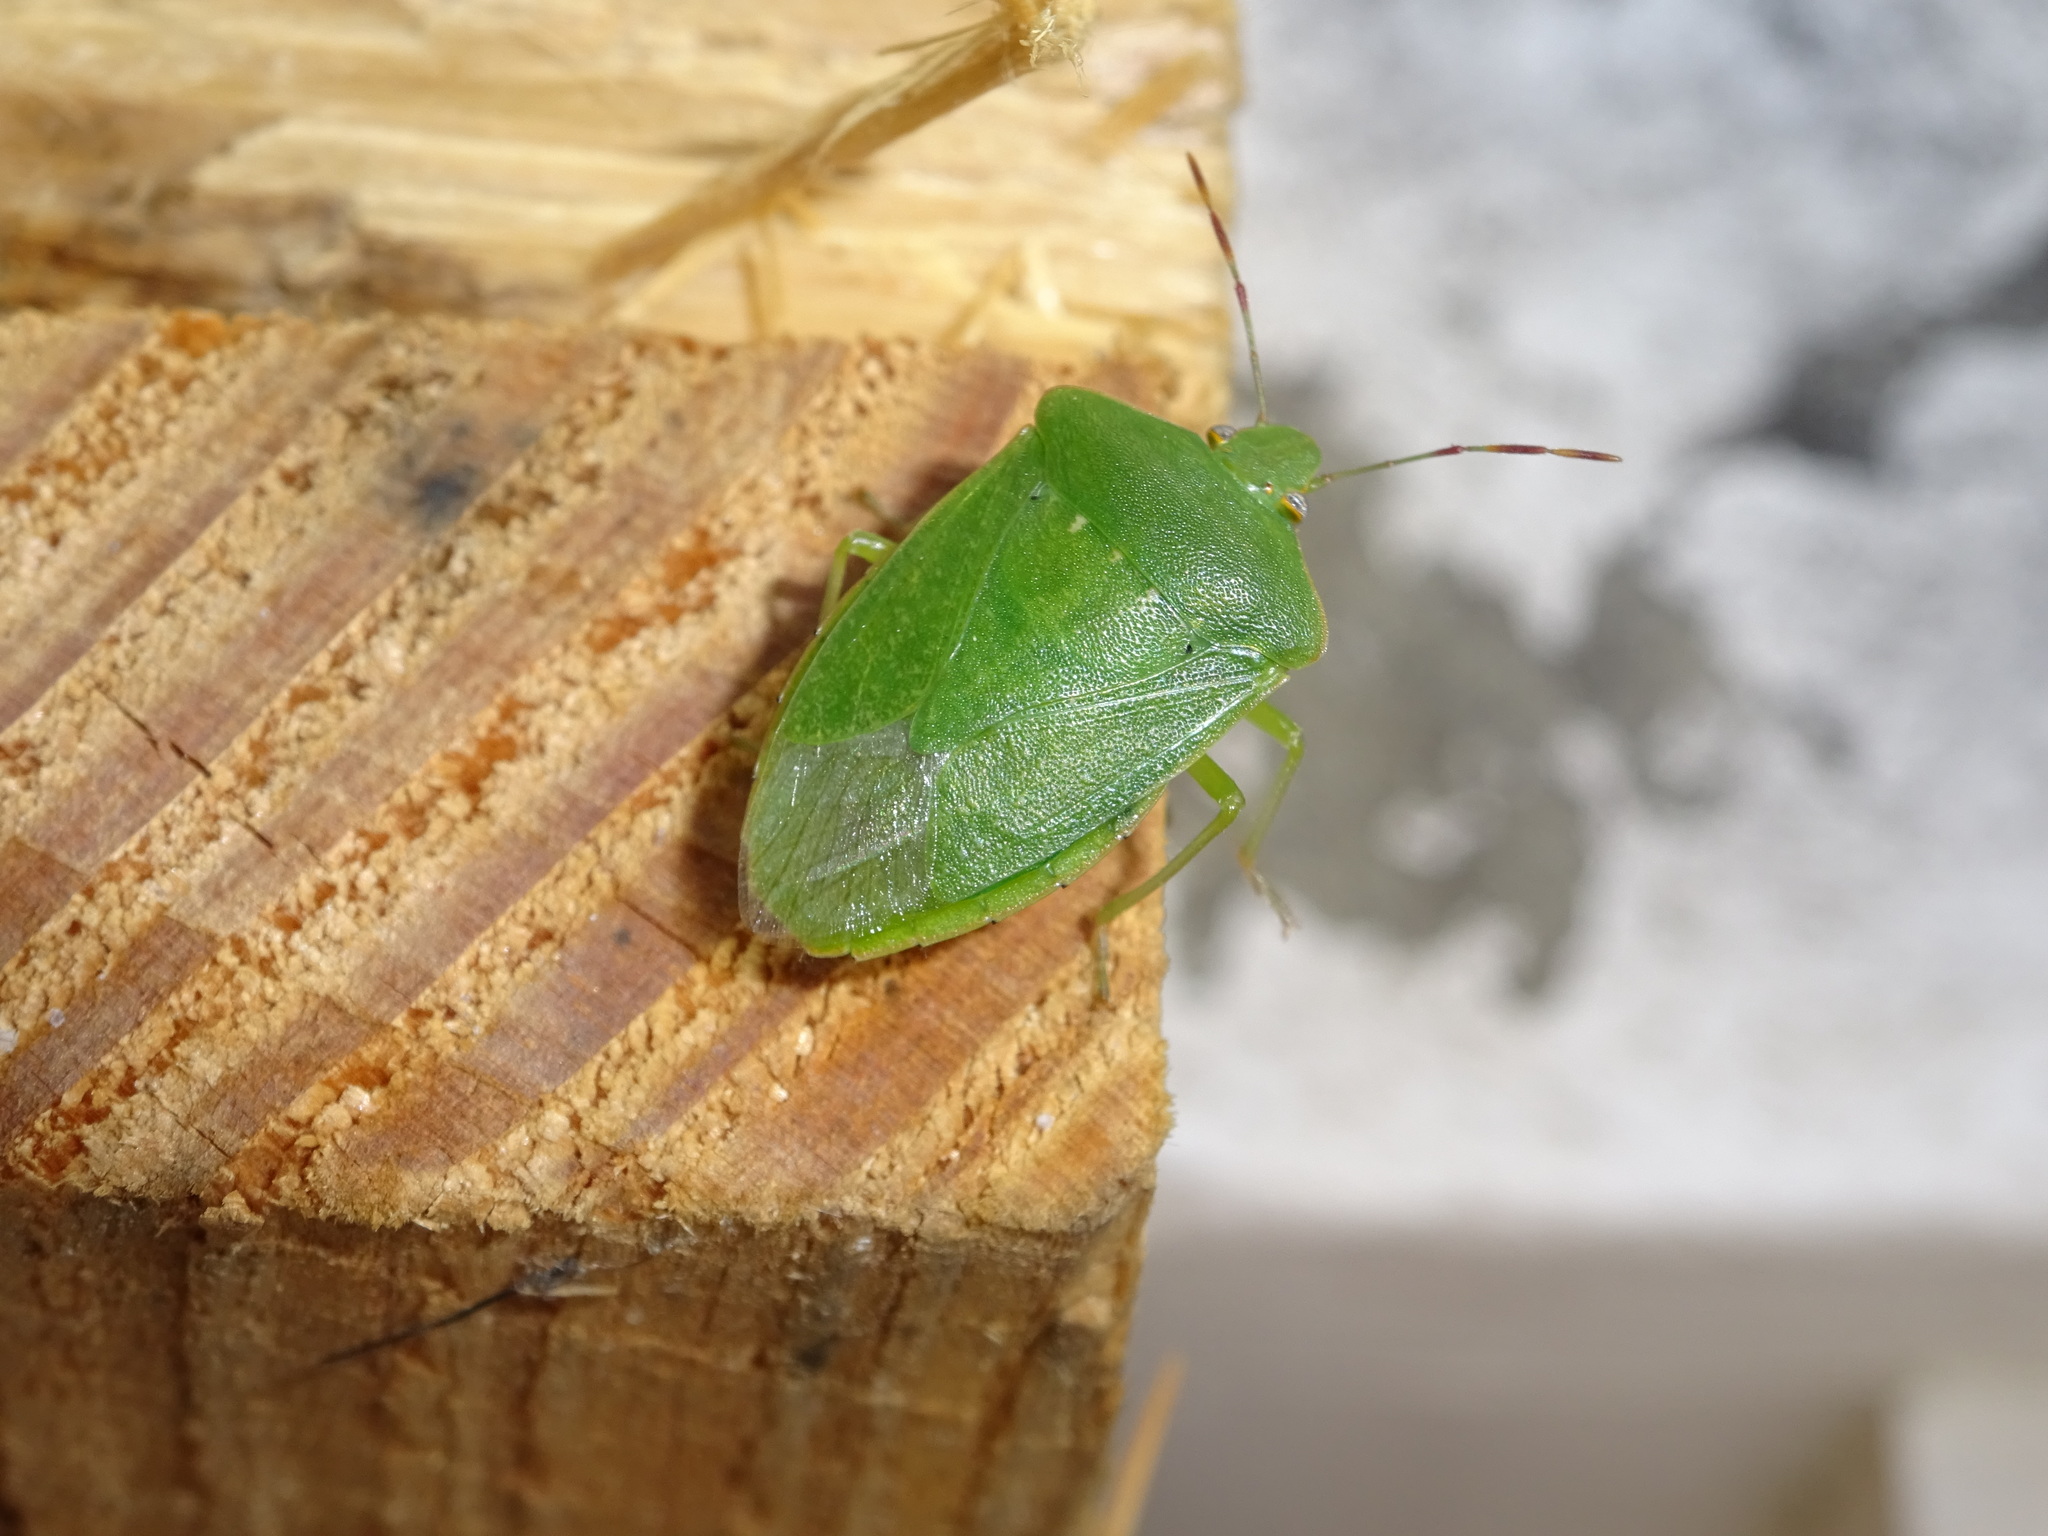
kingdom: Animalia
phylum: Arthropoda
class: Insecta
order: Hemiptera
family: Pentatomidae
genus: Nezara
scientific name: Nezara viridula
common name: Southern green stink bug
